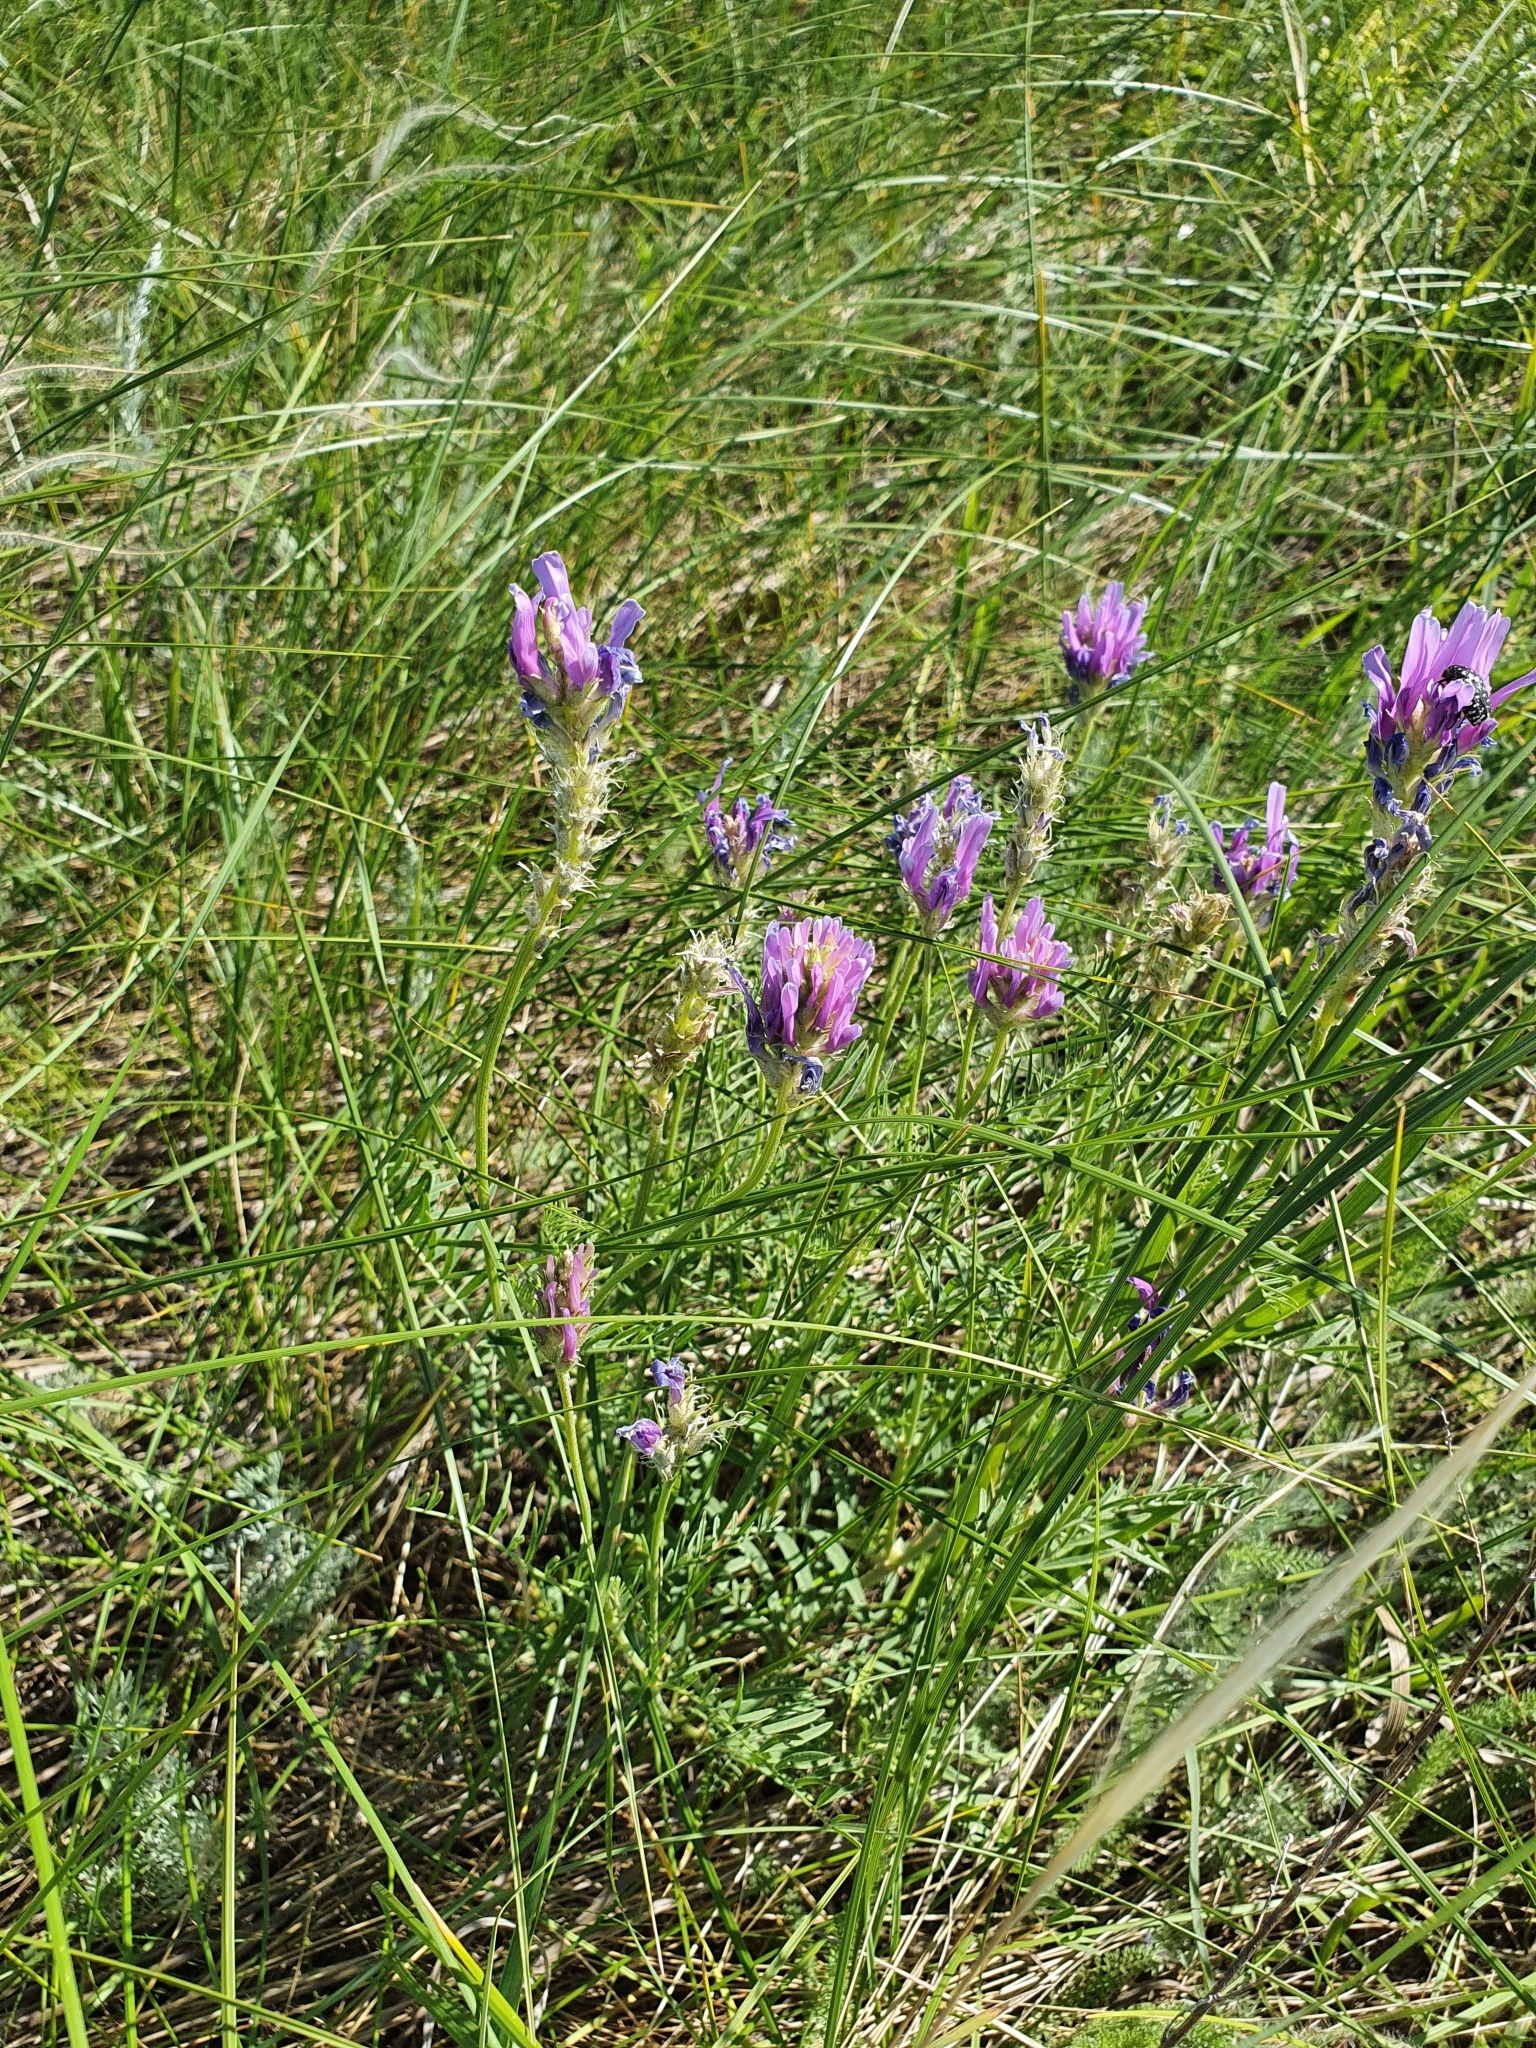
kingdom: Plantae
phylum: Tracheophyta
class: Magnoliopsida
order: Fabales
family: Fabaceae
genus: Astragalus
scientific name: Astragalus onobrychis
